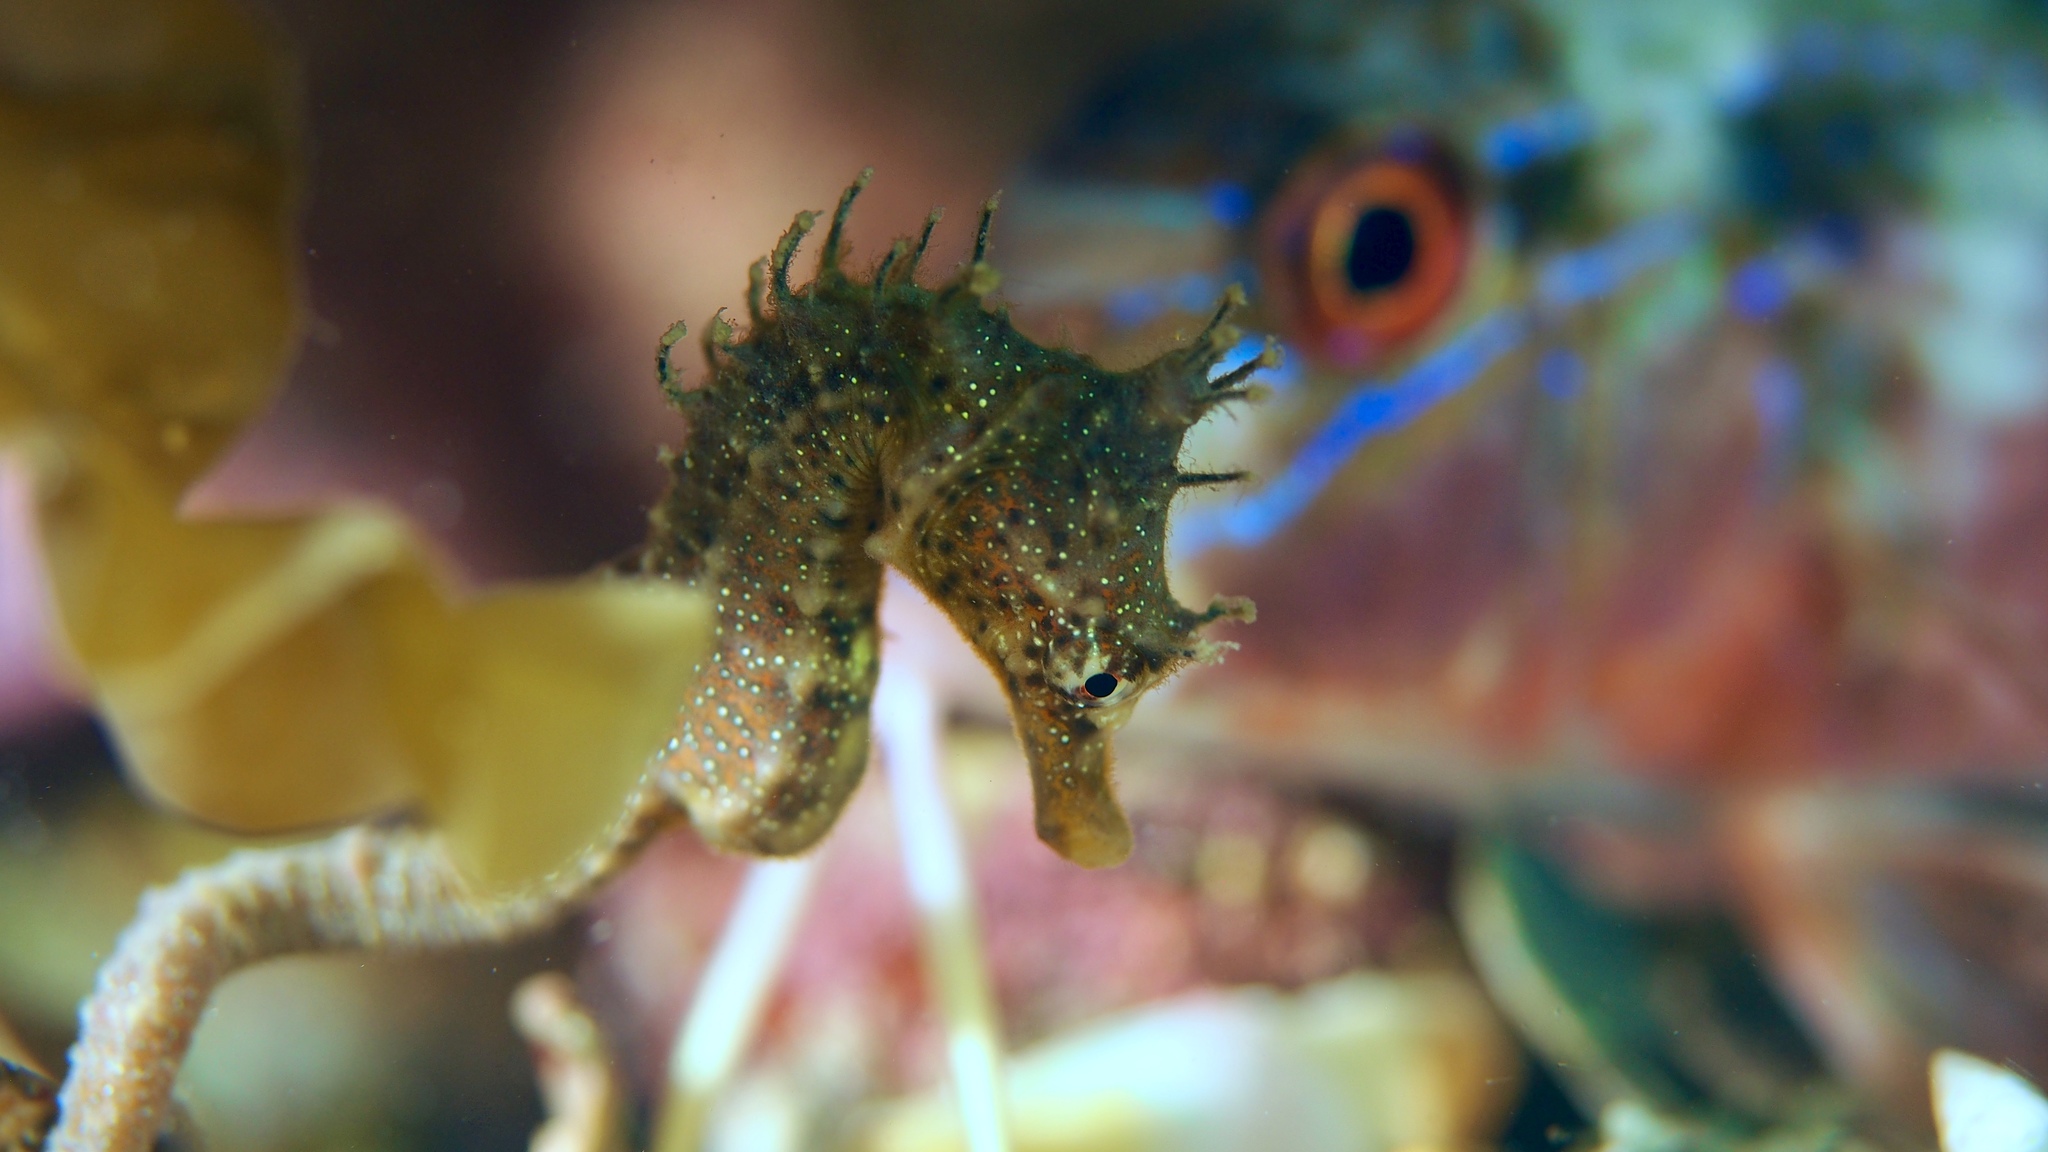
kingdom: Animalia
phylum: Chordata
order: Syngnathiformes
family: Syngnathidae
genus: Hippocampus
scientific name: Hippocampus breviceps
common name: Knobby seahorse
